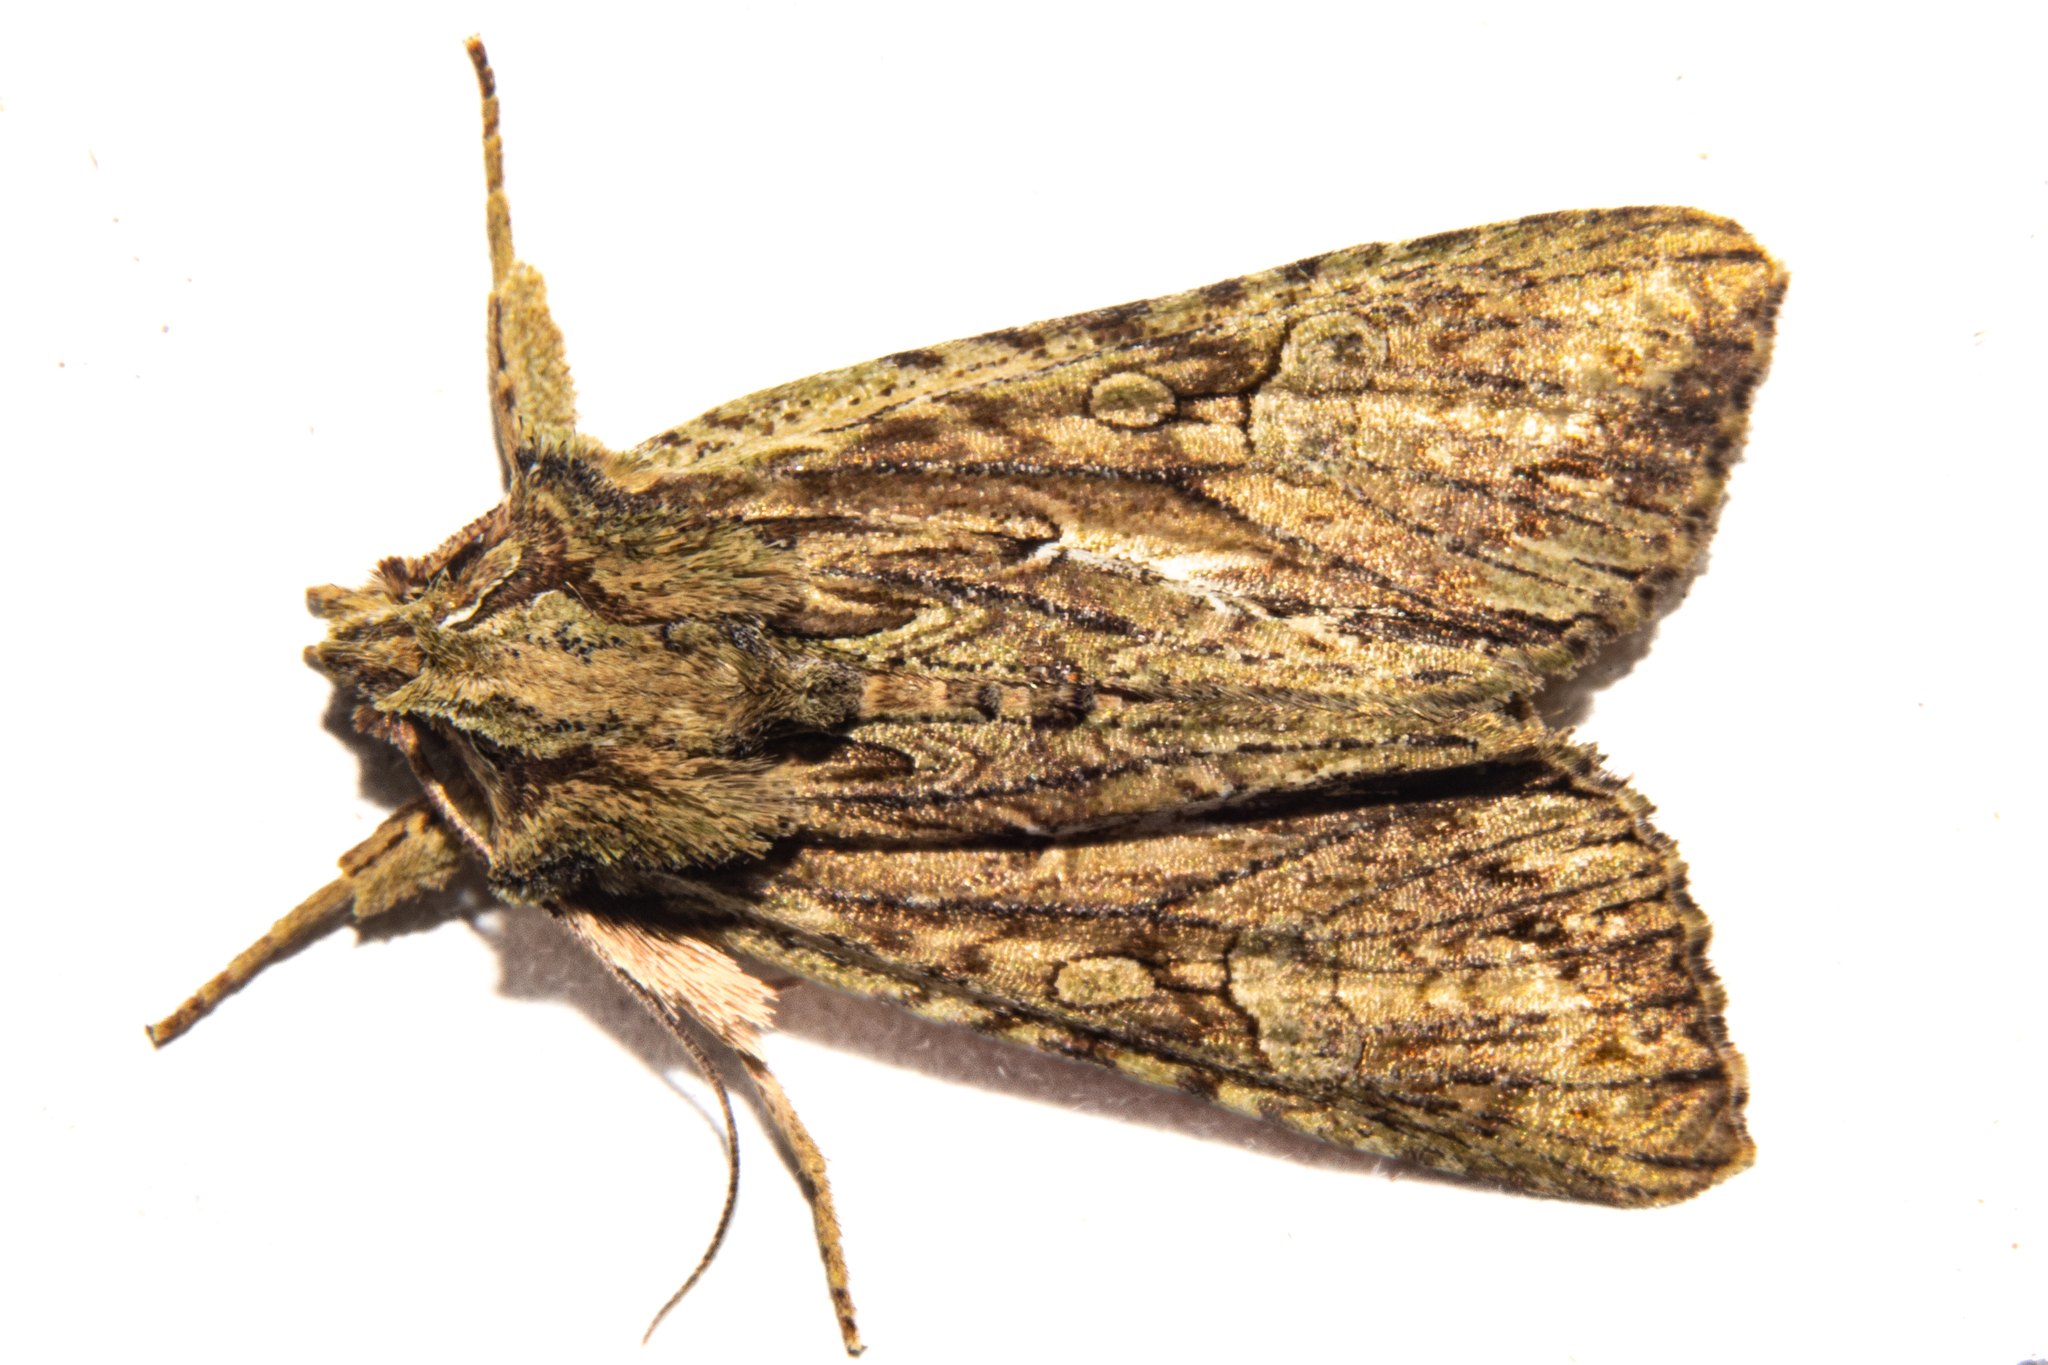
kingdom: Animalia
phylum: Arthropoda
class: Insecta
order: Lepidoptera
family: Noctuidae
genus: Meterana
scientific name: Meterana decorata
